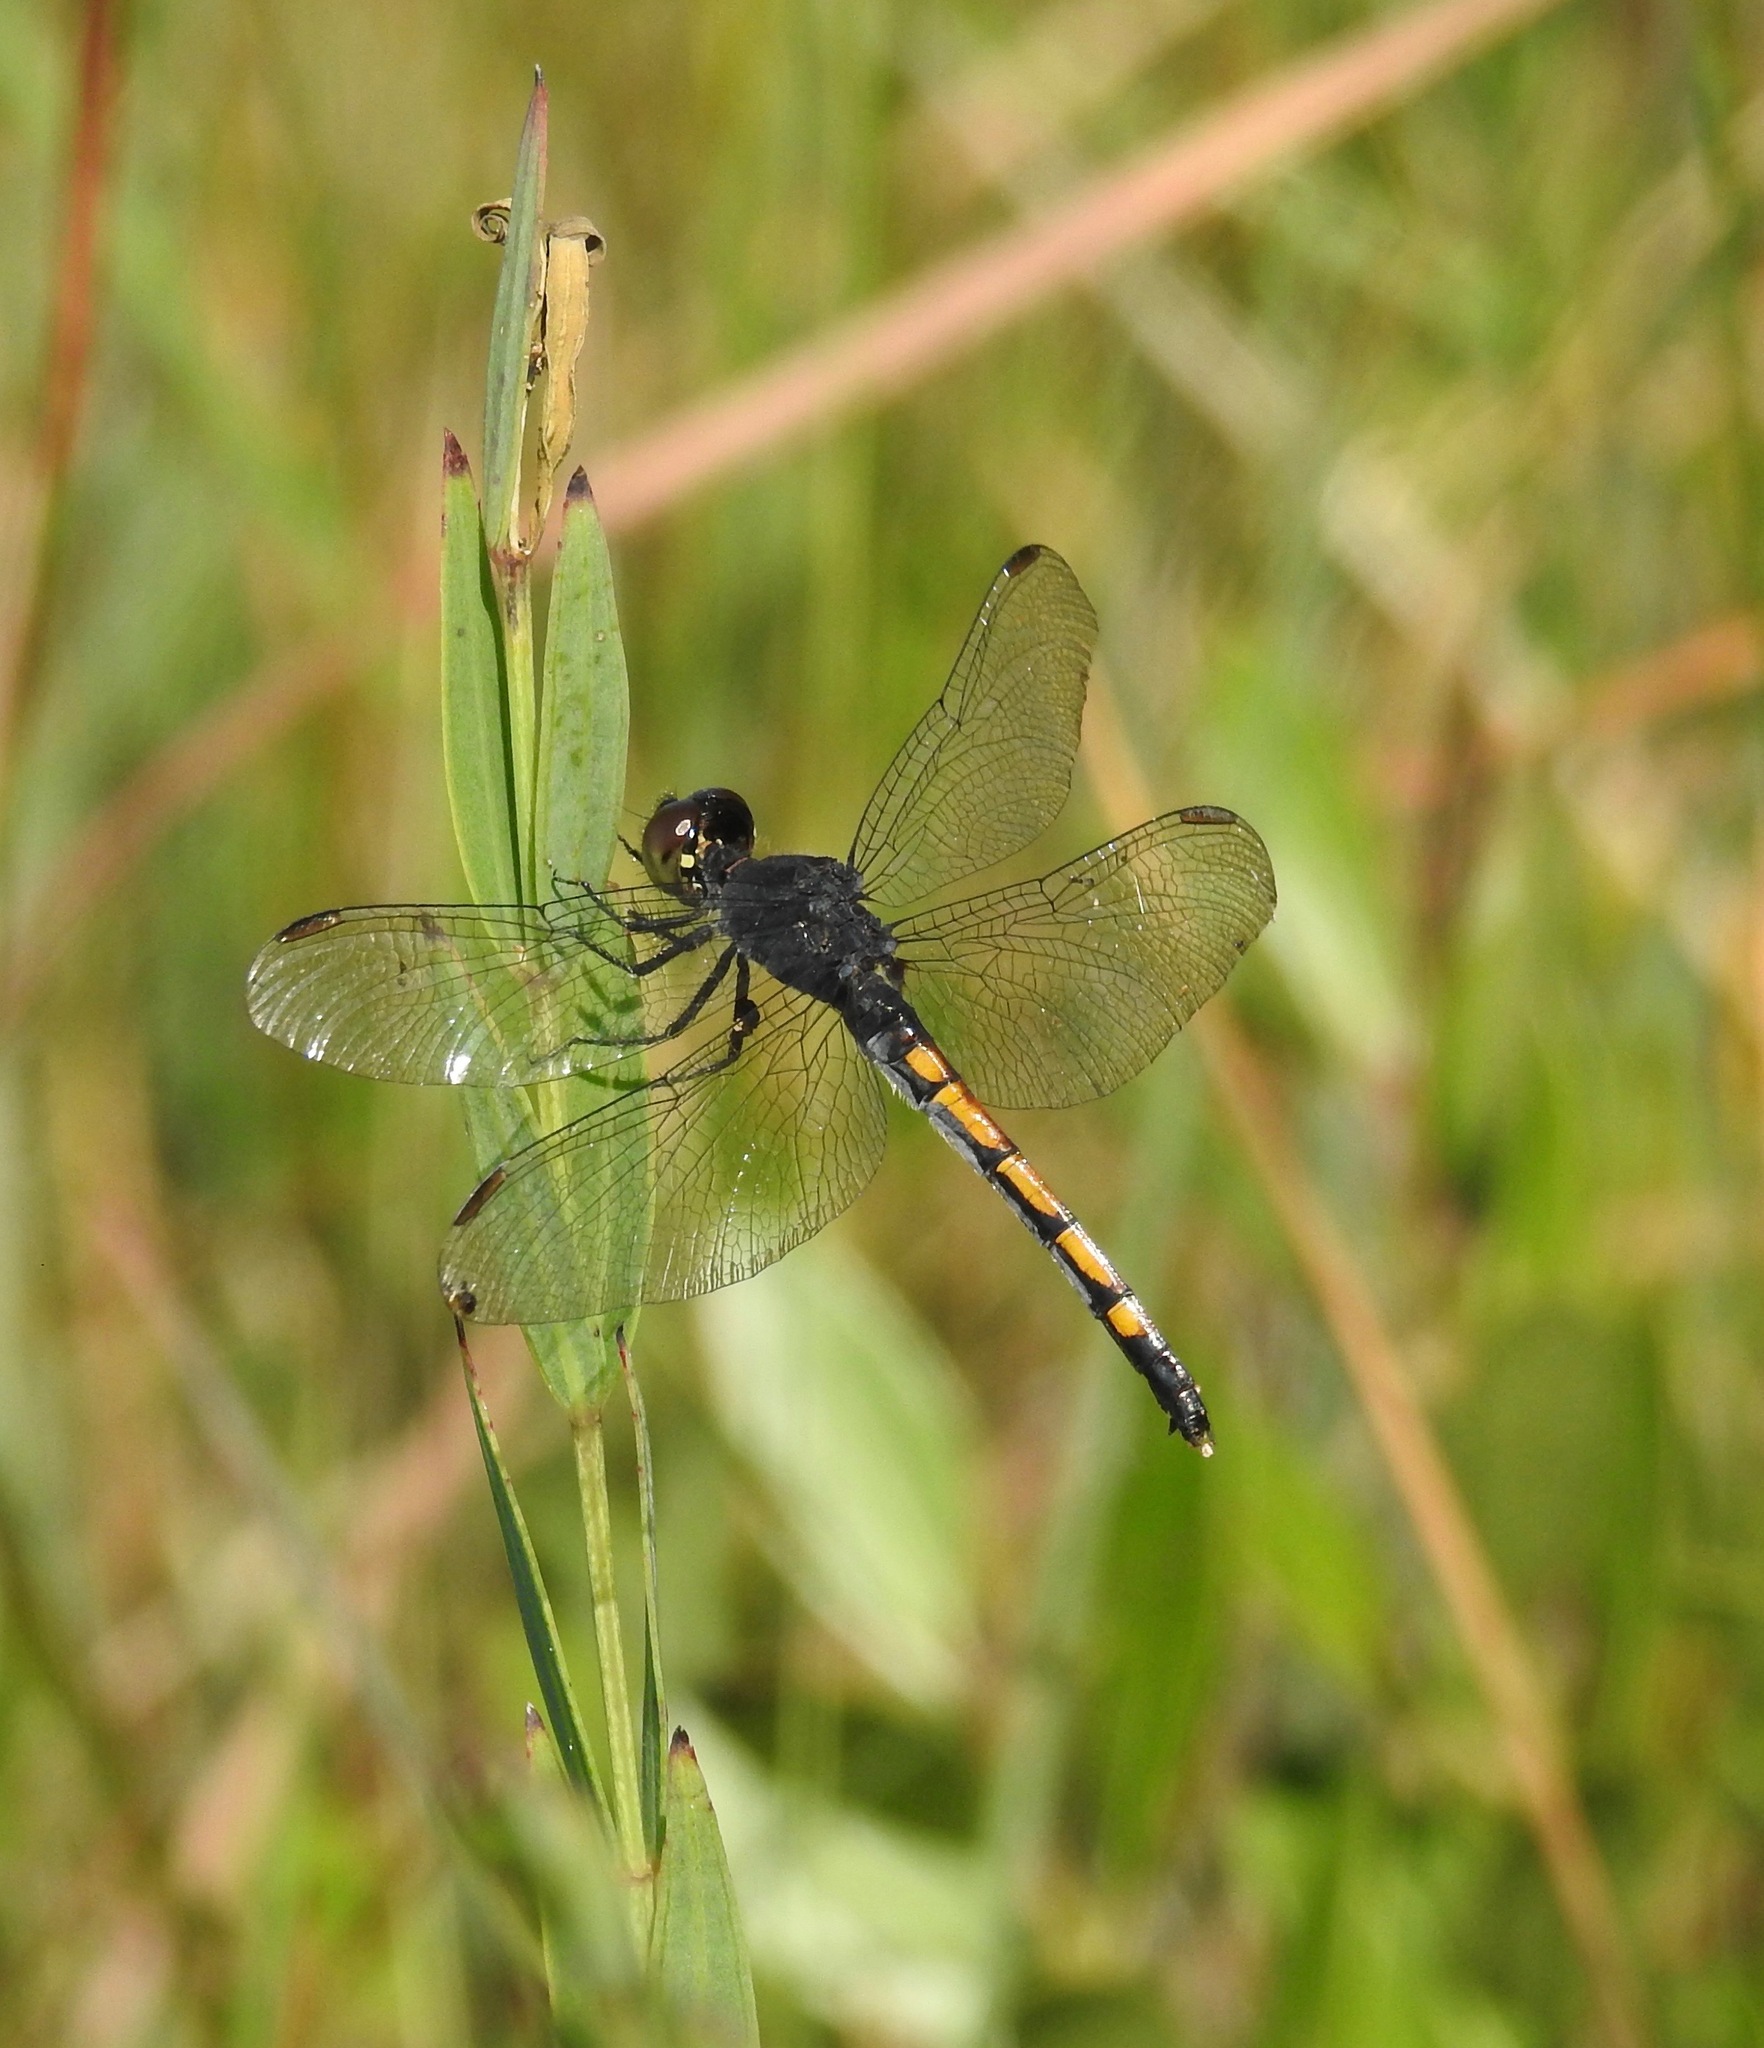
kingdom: Animalia
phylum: Arthropoda
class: Insecta
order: Odonata
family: Libellulidae
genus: Erythrodiplax
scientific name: Erythrodiplax berenice
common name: Seaside dragonlet
